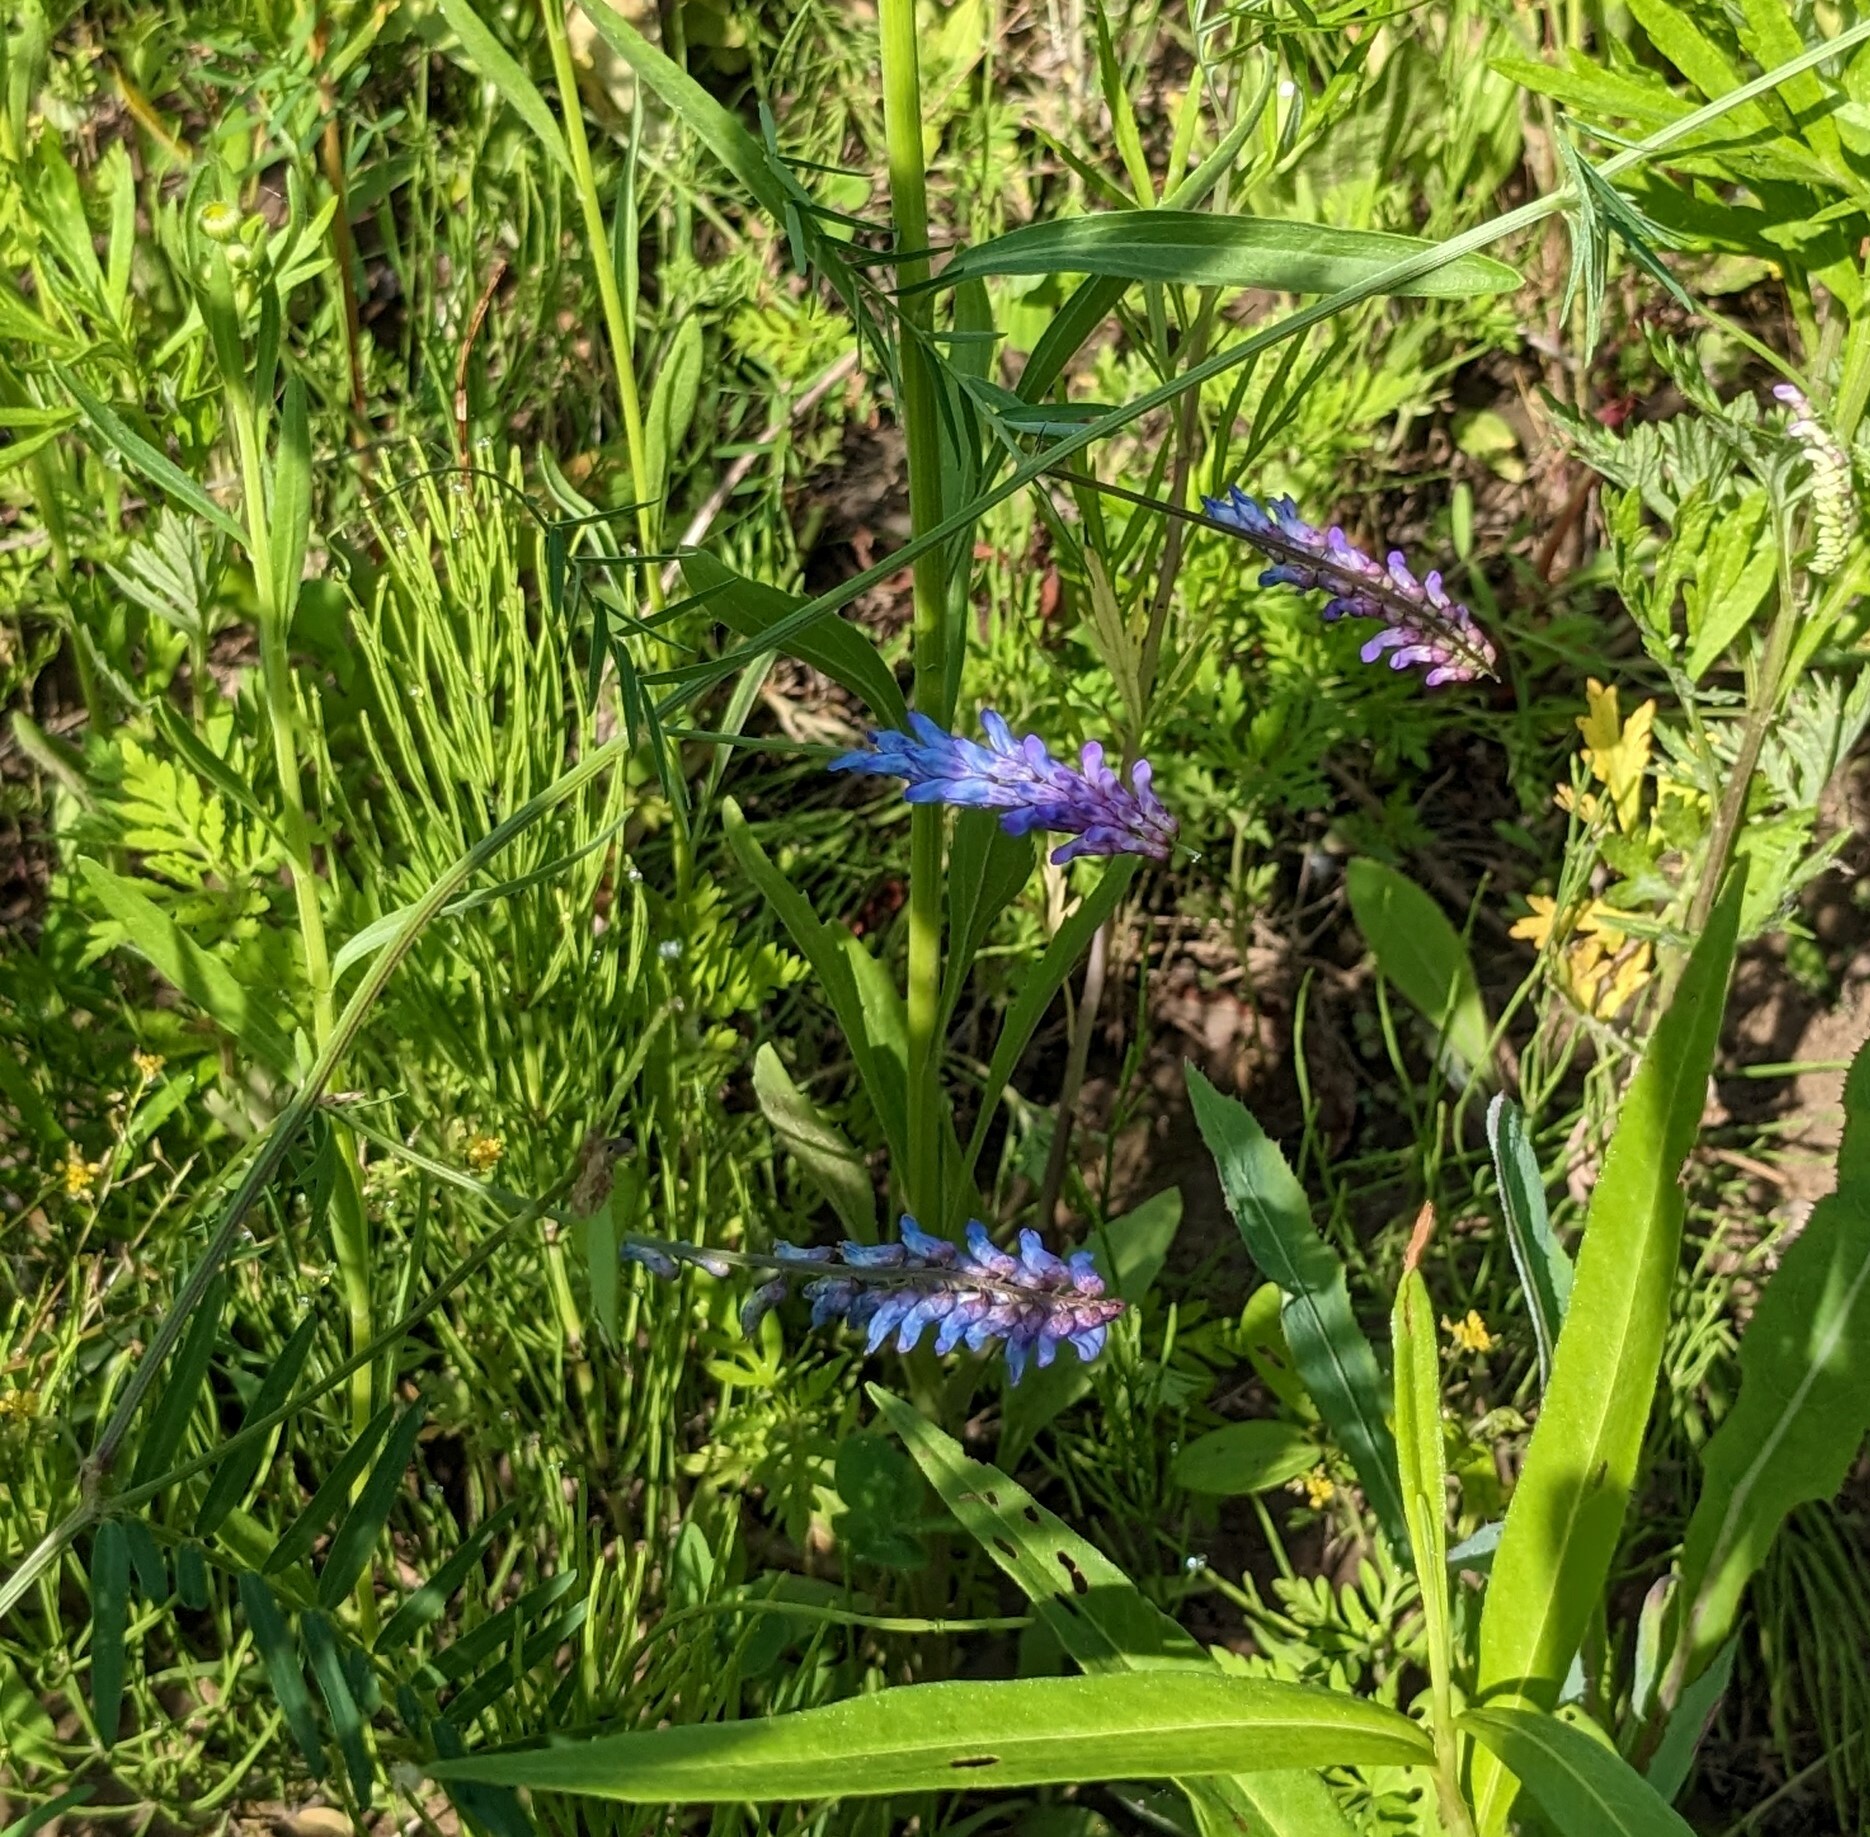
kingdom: Plantae
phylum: Tracheophyta
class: Magnoliopsida
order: Fabales
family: Fabaceae
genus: Vicia
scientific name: Vicia cracca
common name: Bird vetch
